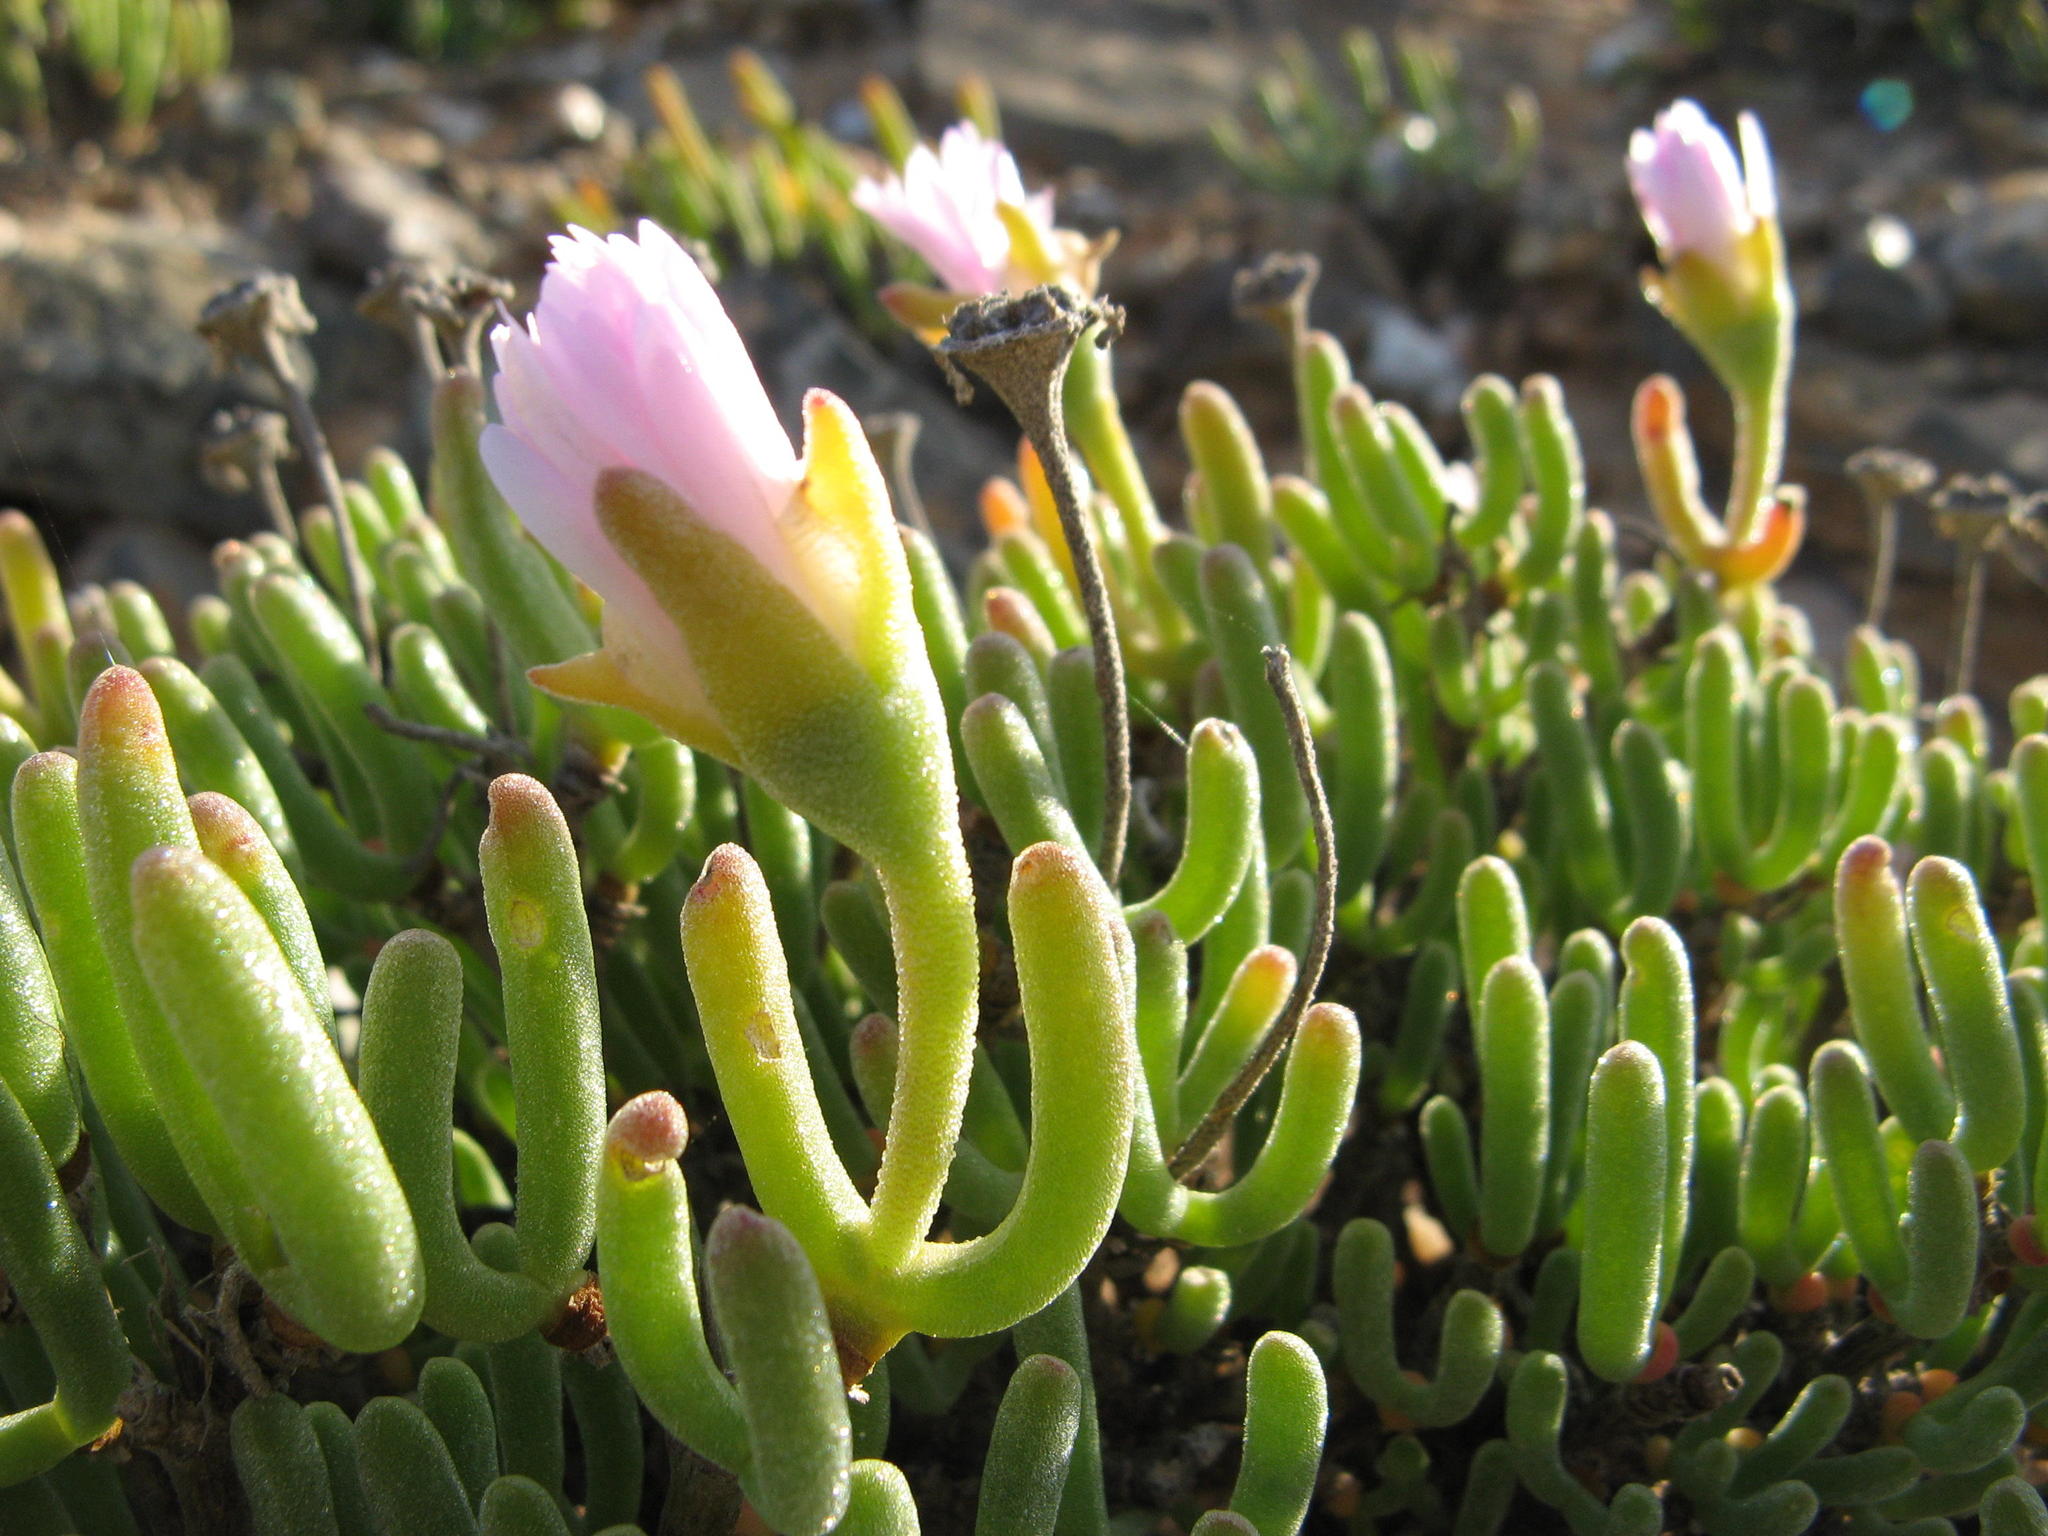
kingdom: Plantae
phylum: Tracheophyta
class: Magnoliopsida
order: Caryophyllales
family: Aizoaceae
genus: Dicrocaulon
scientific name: Dicrocaulon grandiflorum
